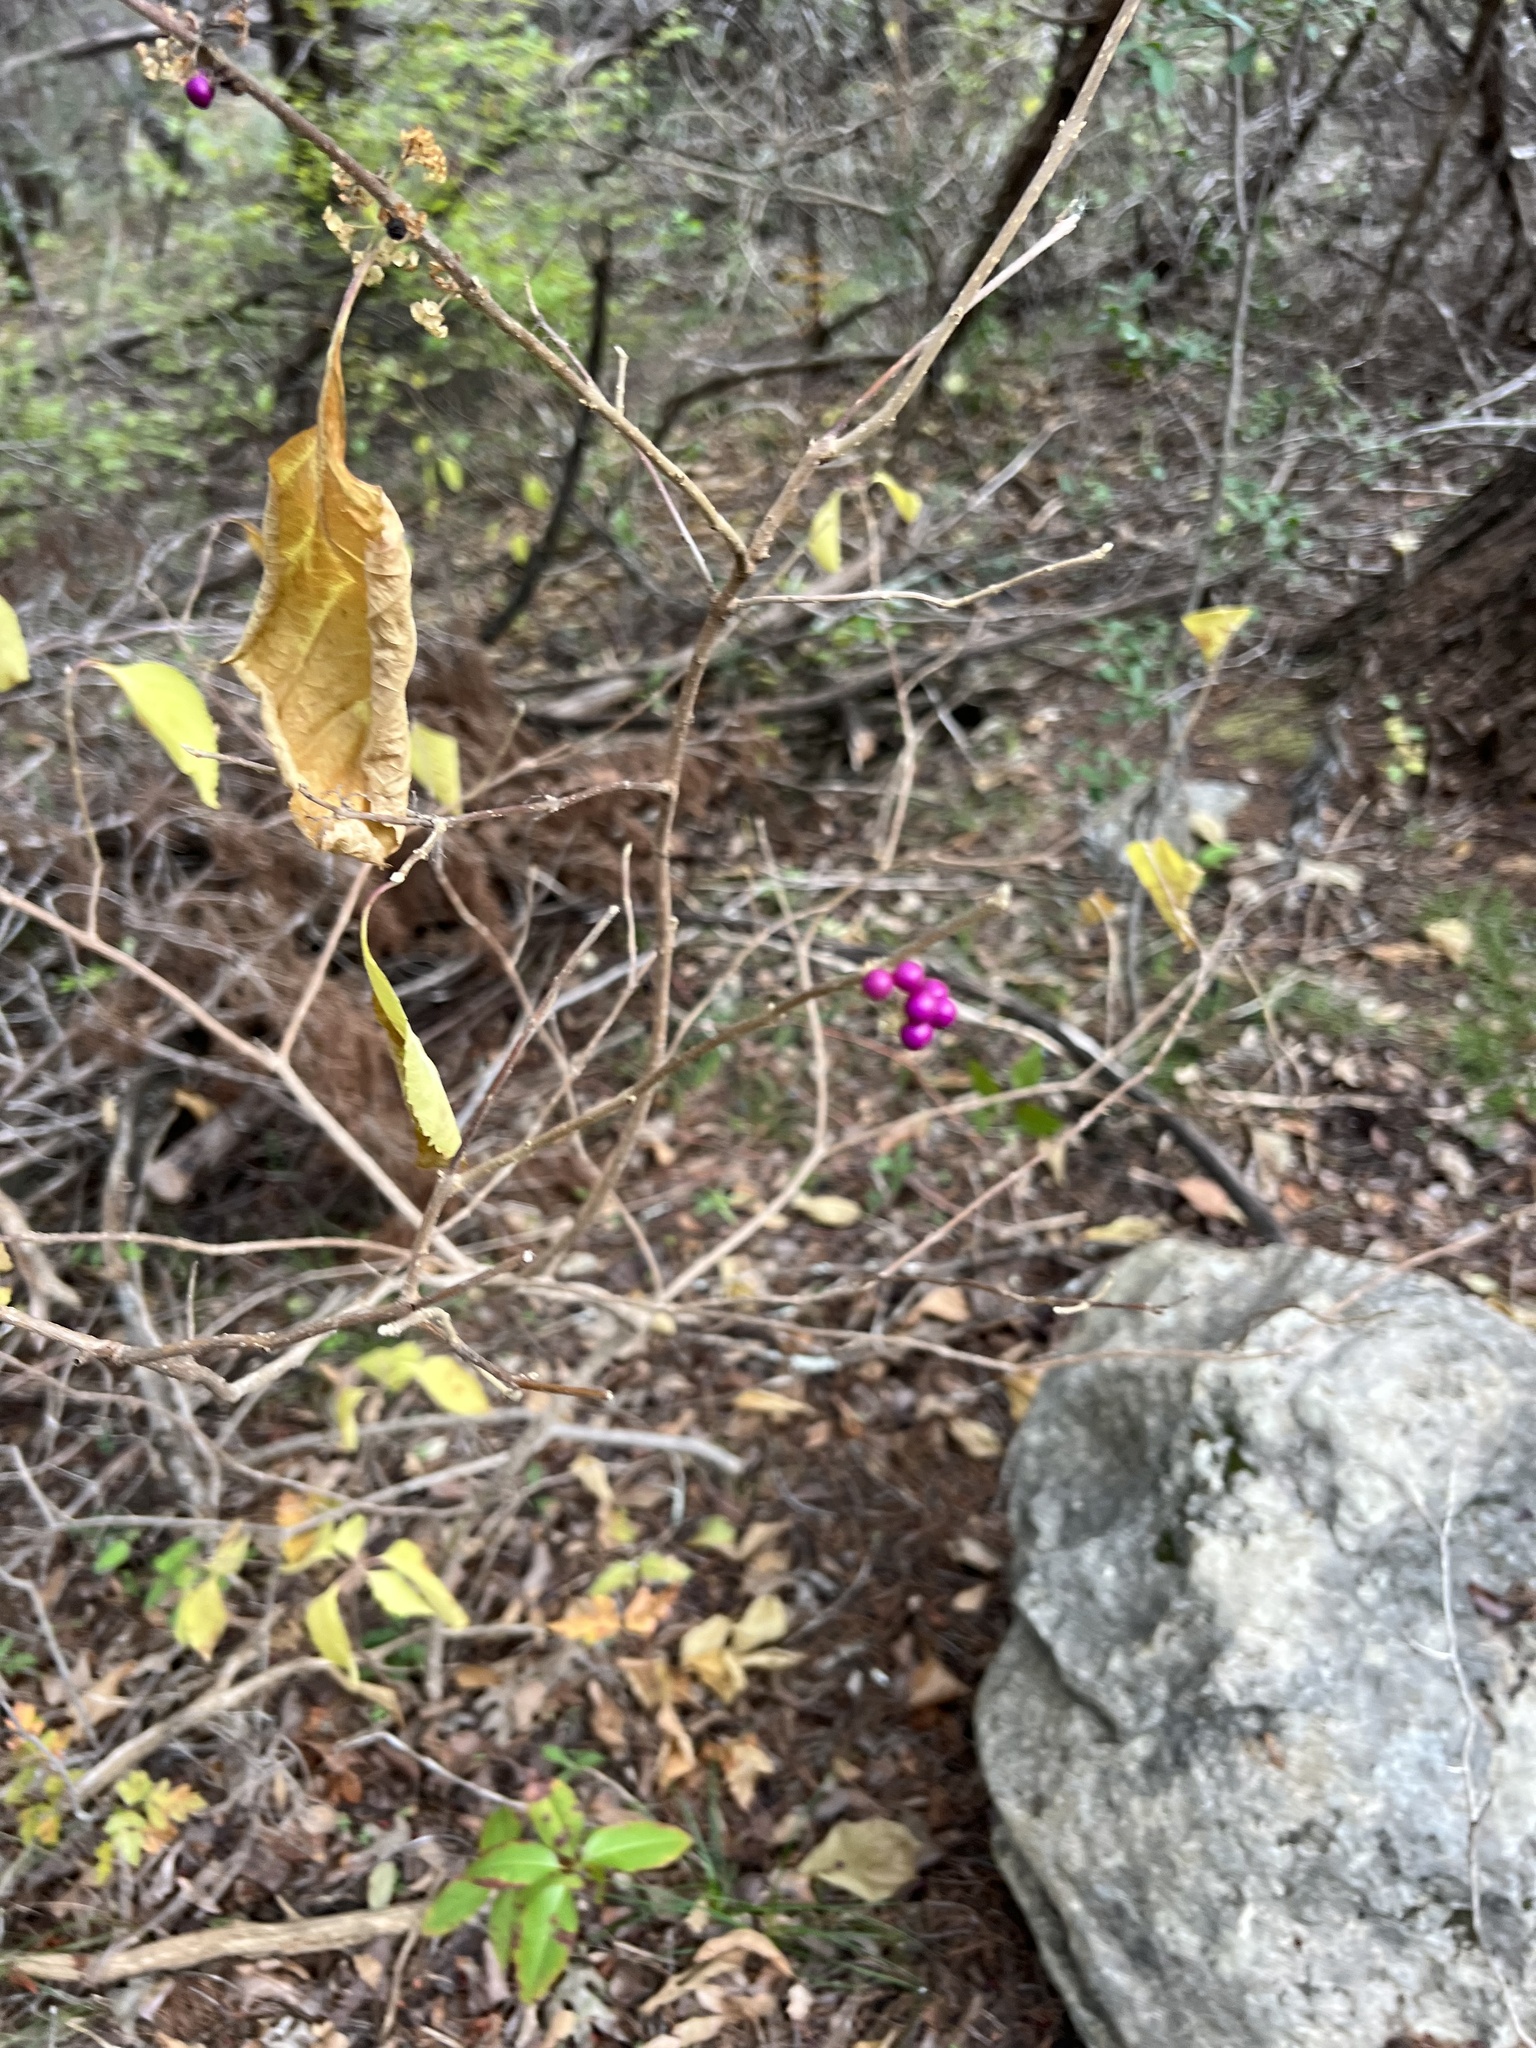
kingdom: Plantae
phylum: Tracheophyta
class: Magnoliopsida
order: Lamiales
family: Lamiaceae
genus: Callicarpa
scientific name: Callicarpa americana
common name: American beautyberry
